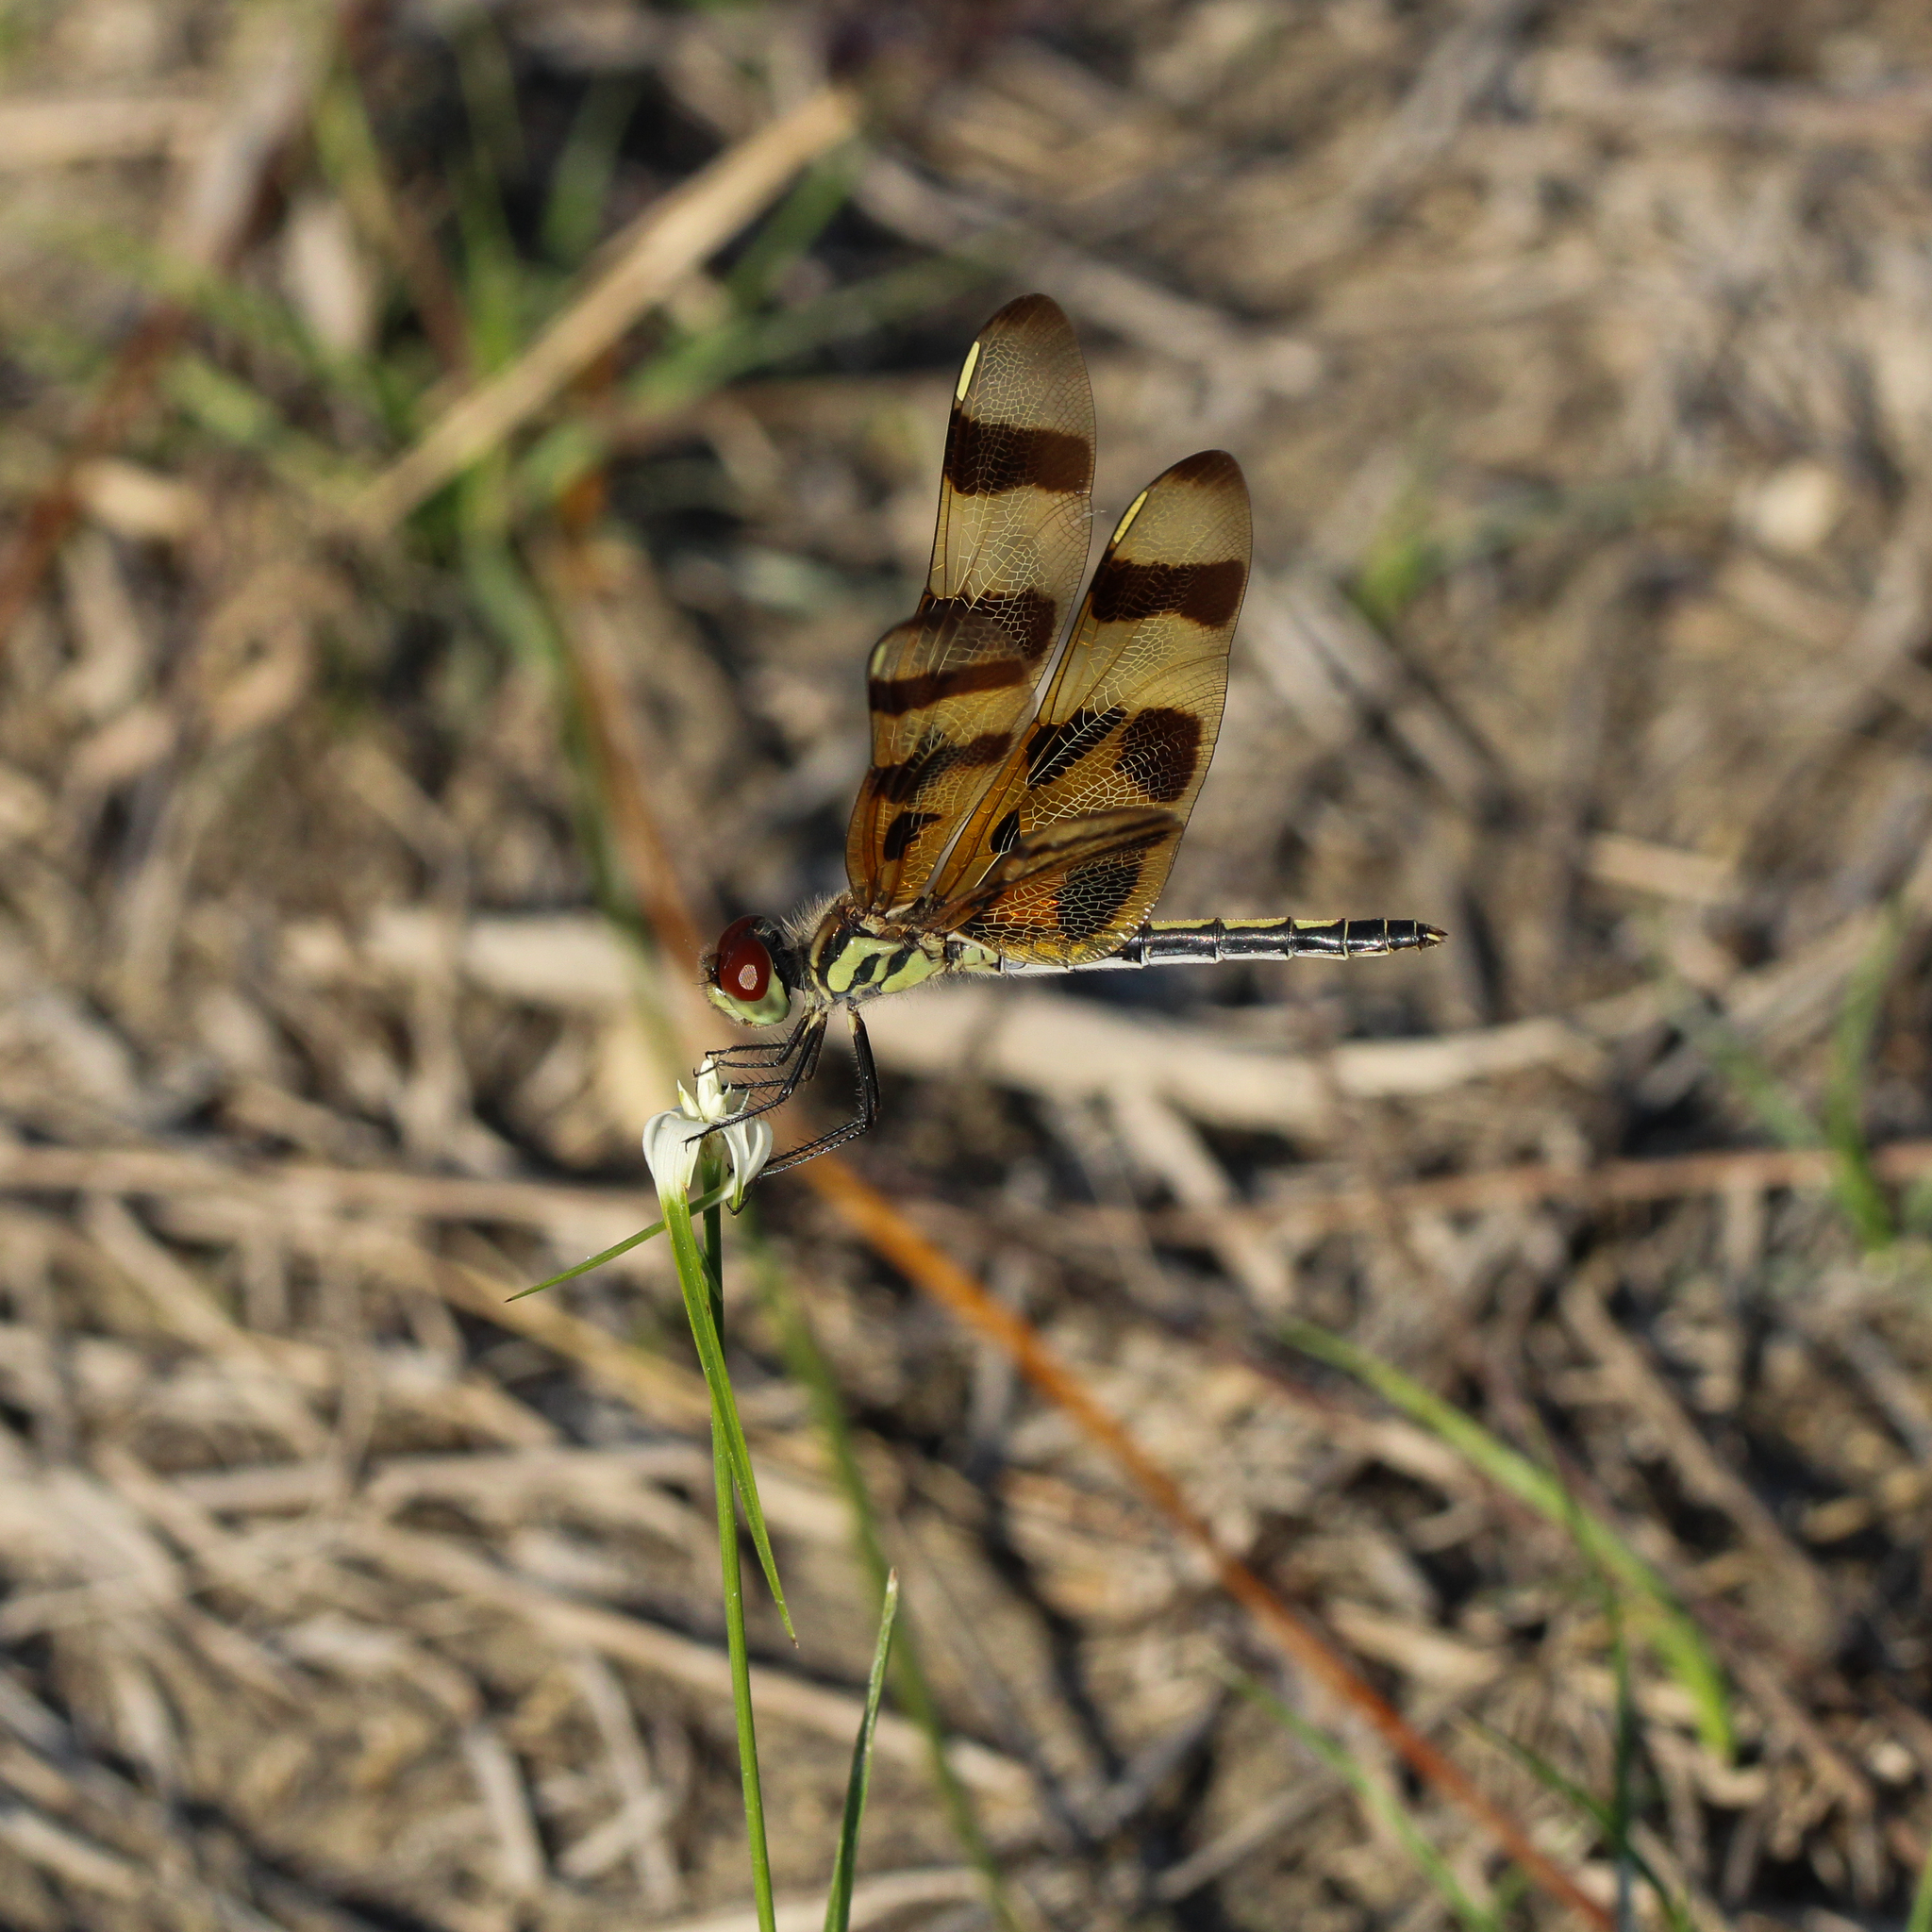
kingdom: Animalia
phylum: Arthropoda
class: Insecta
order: Odonata
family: Libellulidae
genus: Celithemis
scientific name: Celithemis eponina
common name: Halloween pennant
